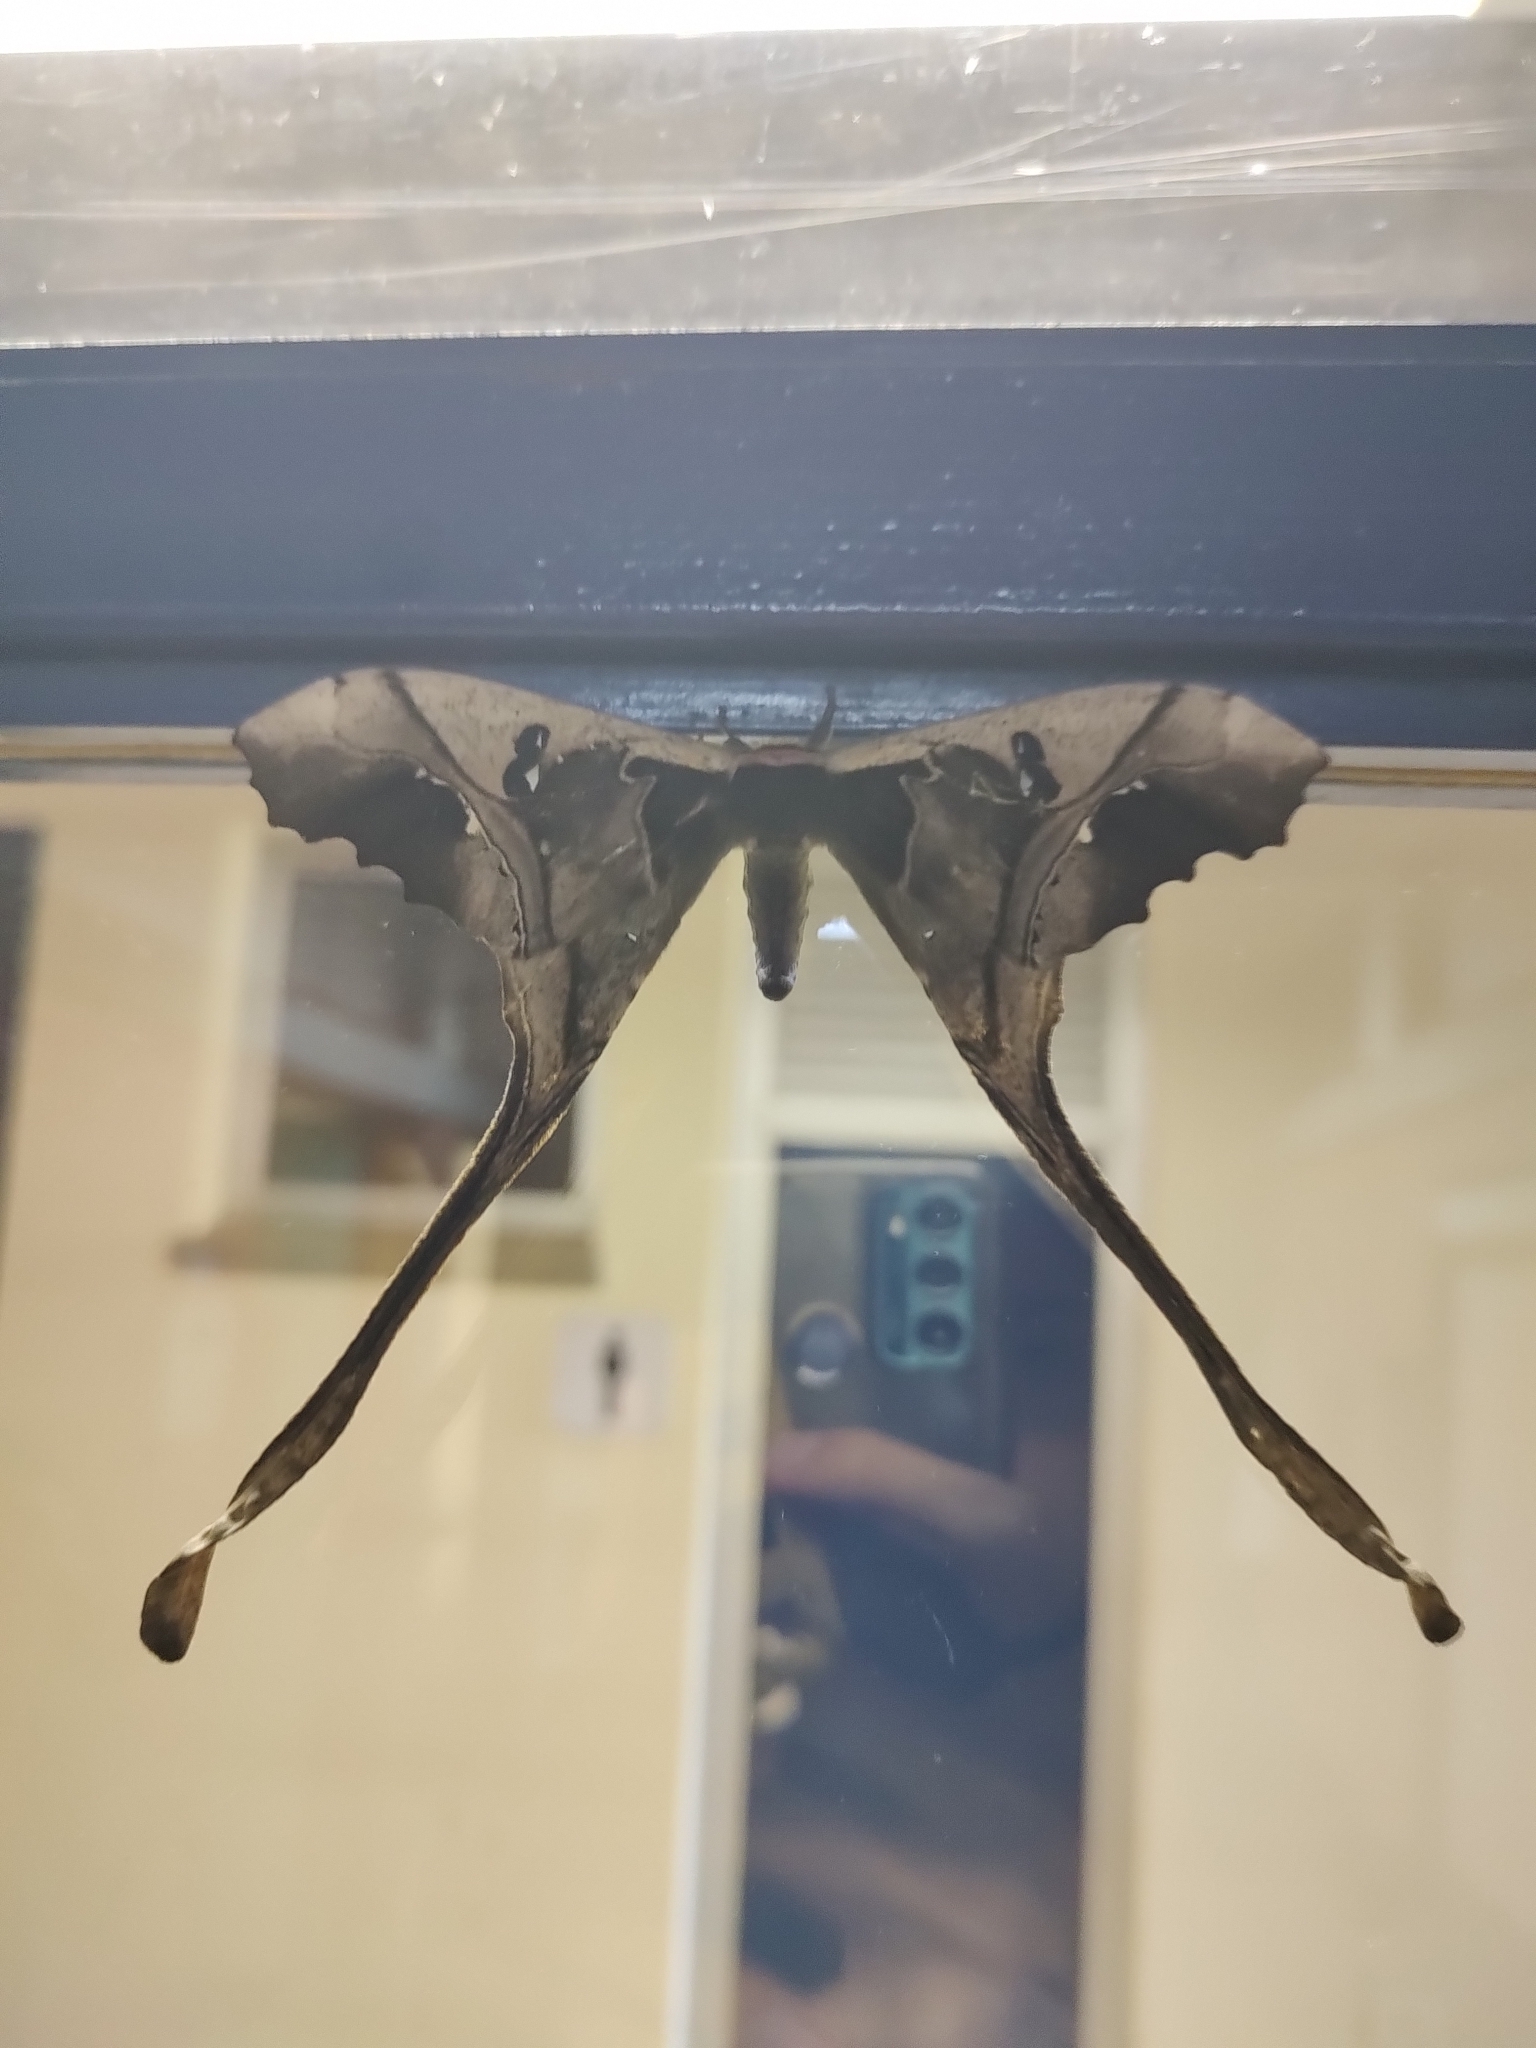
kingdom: Animalia
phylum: Arthropoda
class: Insecta
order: Lepidoptera
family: Saturniidae
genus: Copiopteryx
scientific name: Copiopteryx sonthonnaxi
